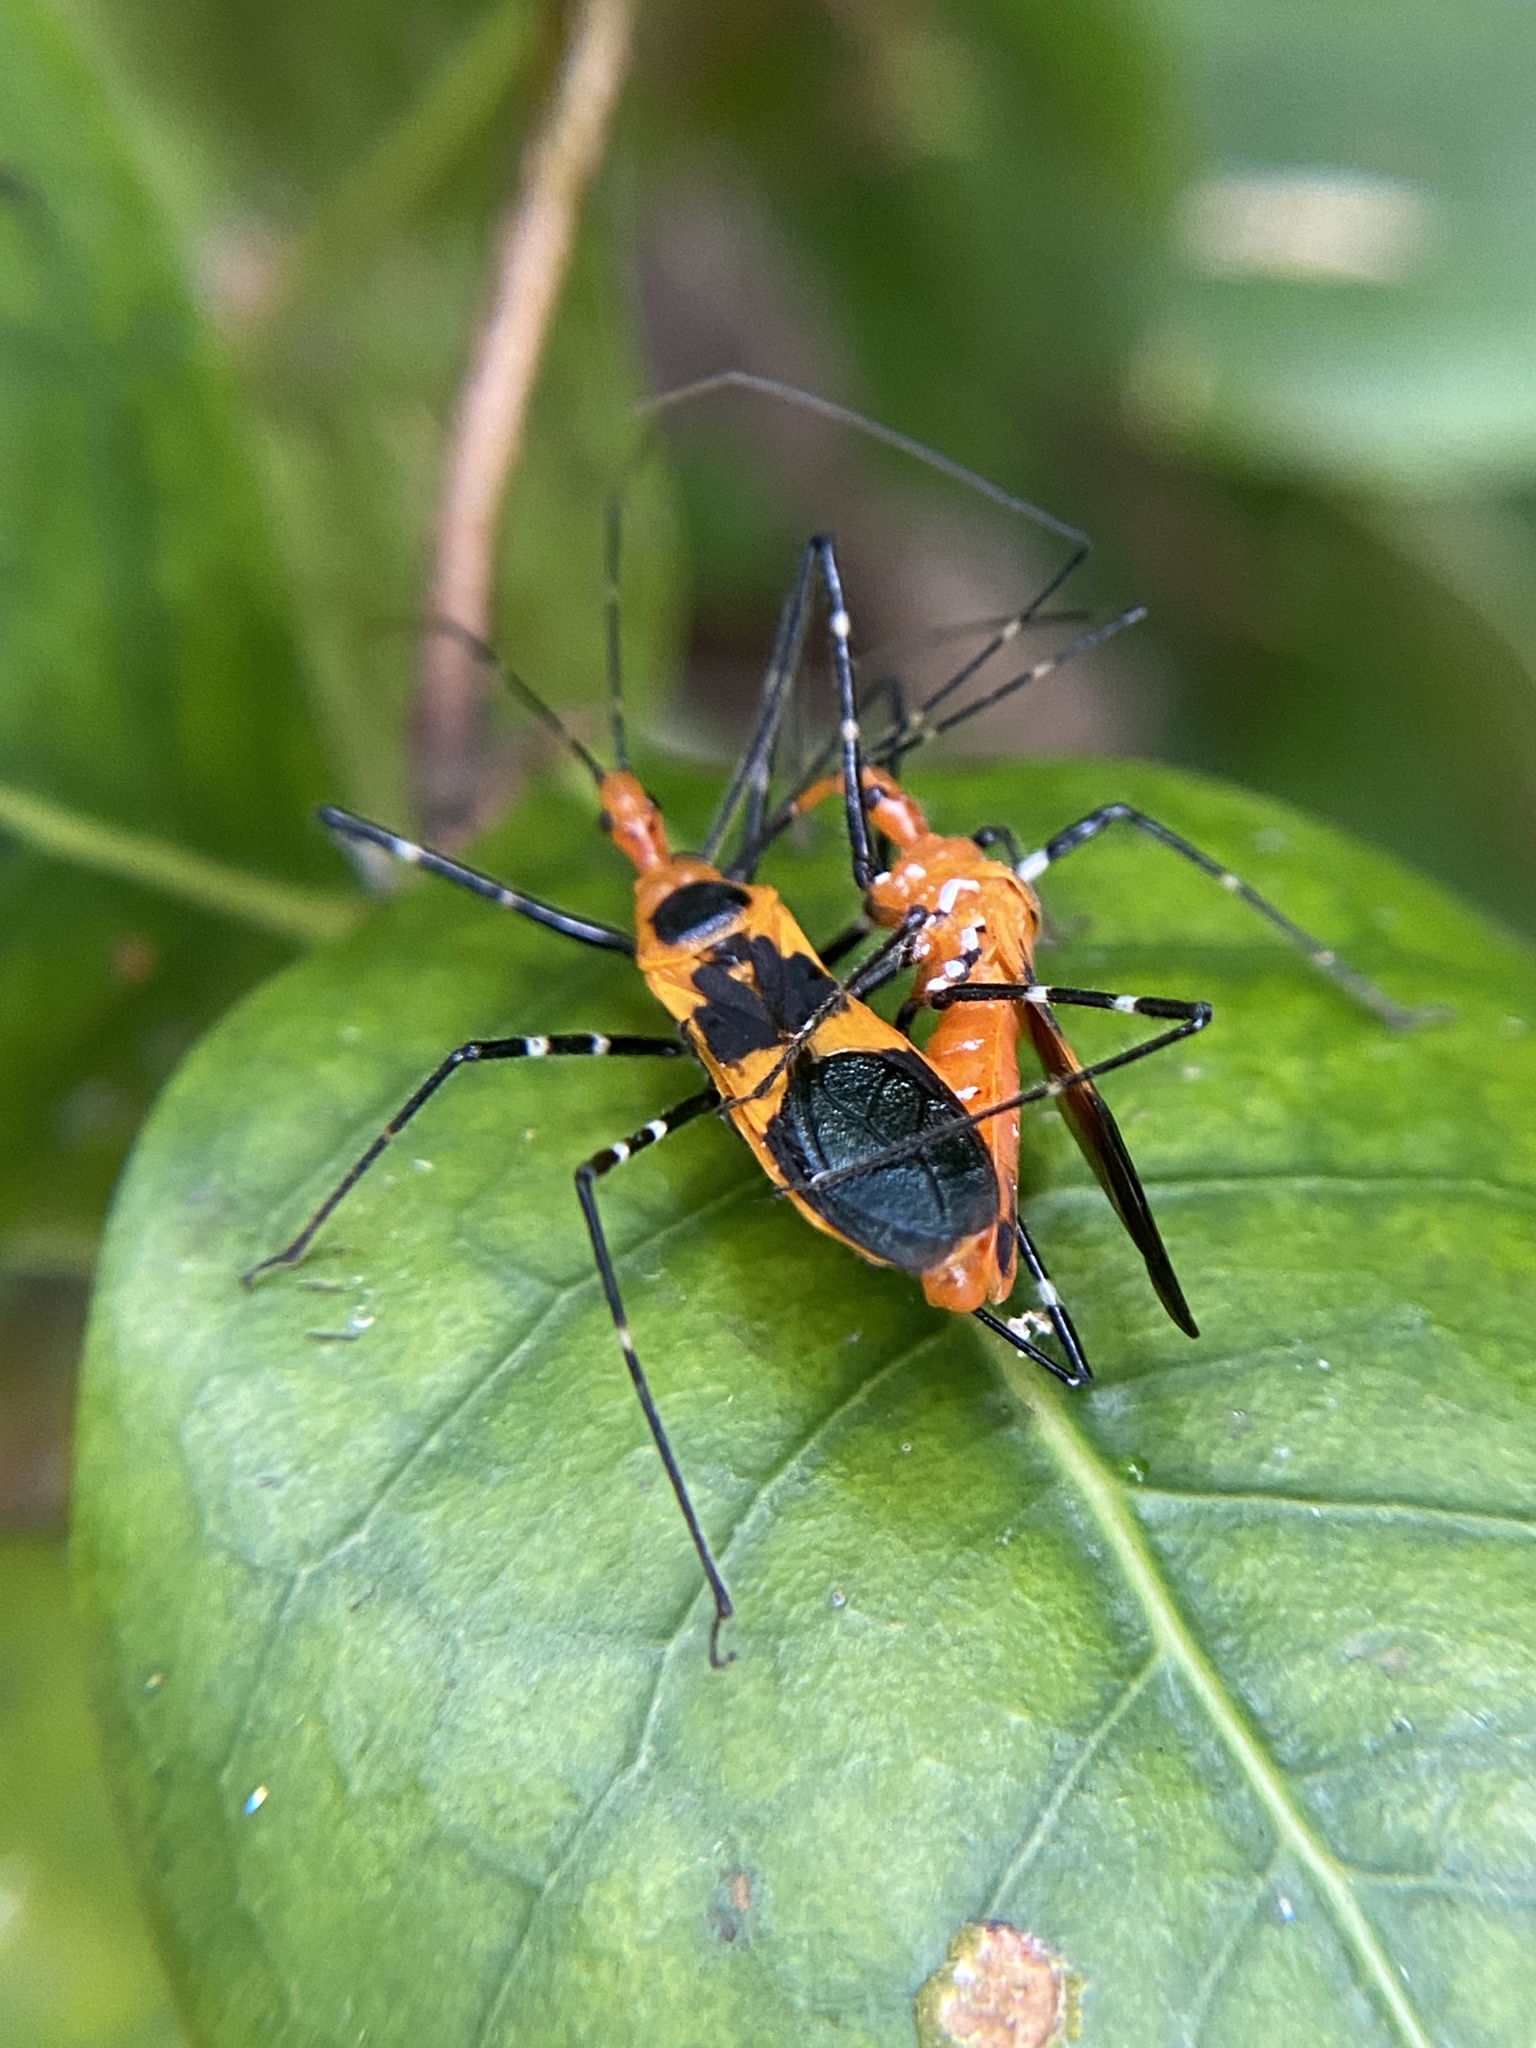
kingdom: Animalia
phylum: Arthropoda
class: Insecta
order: Hemiptera
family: Reduviidae
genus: Zelus
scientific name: Zelus longipes
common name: Milkweed assassin bug
